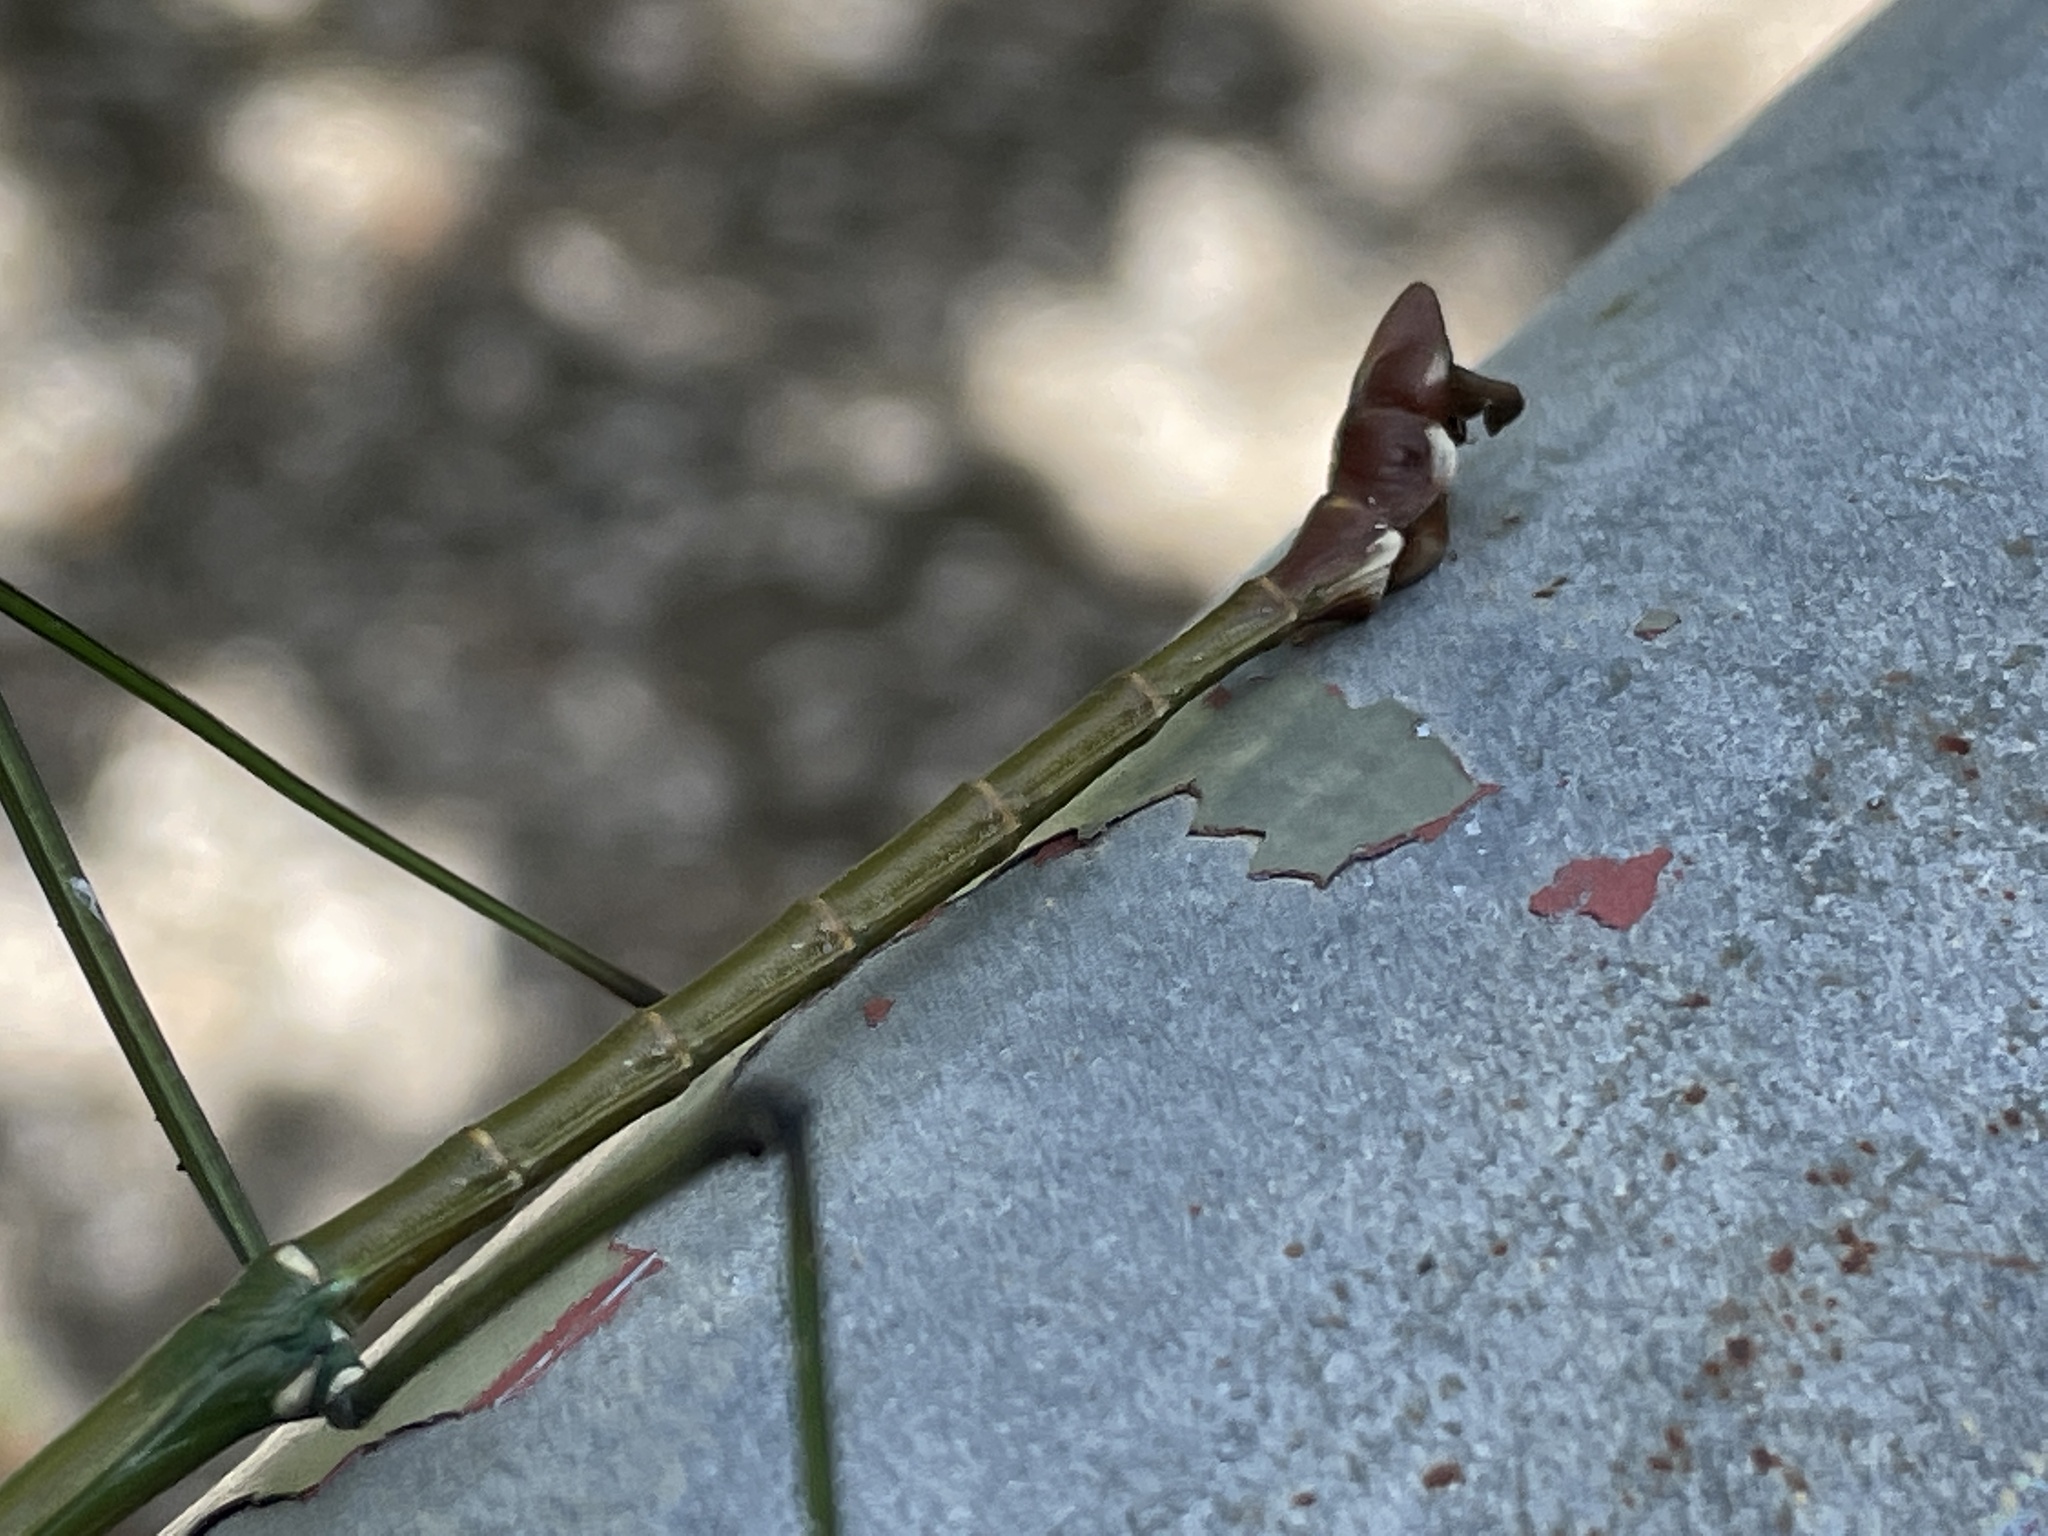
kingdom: Animalia
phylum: Arthropoda
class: Insecta
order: Phasmida
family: Lonchodidae
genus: Phraortes
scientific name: Phraortes stomphax
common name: Hong kong stick insect
